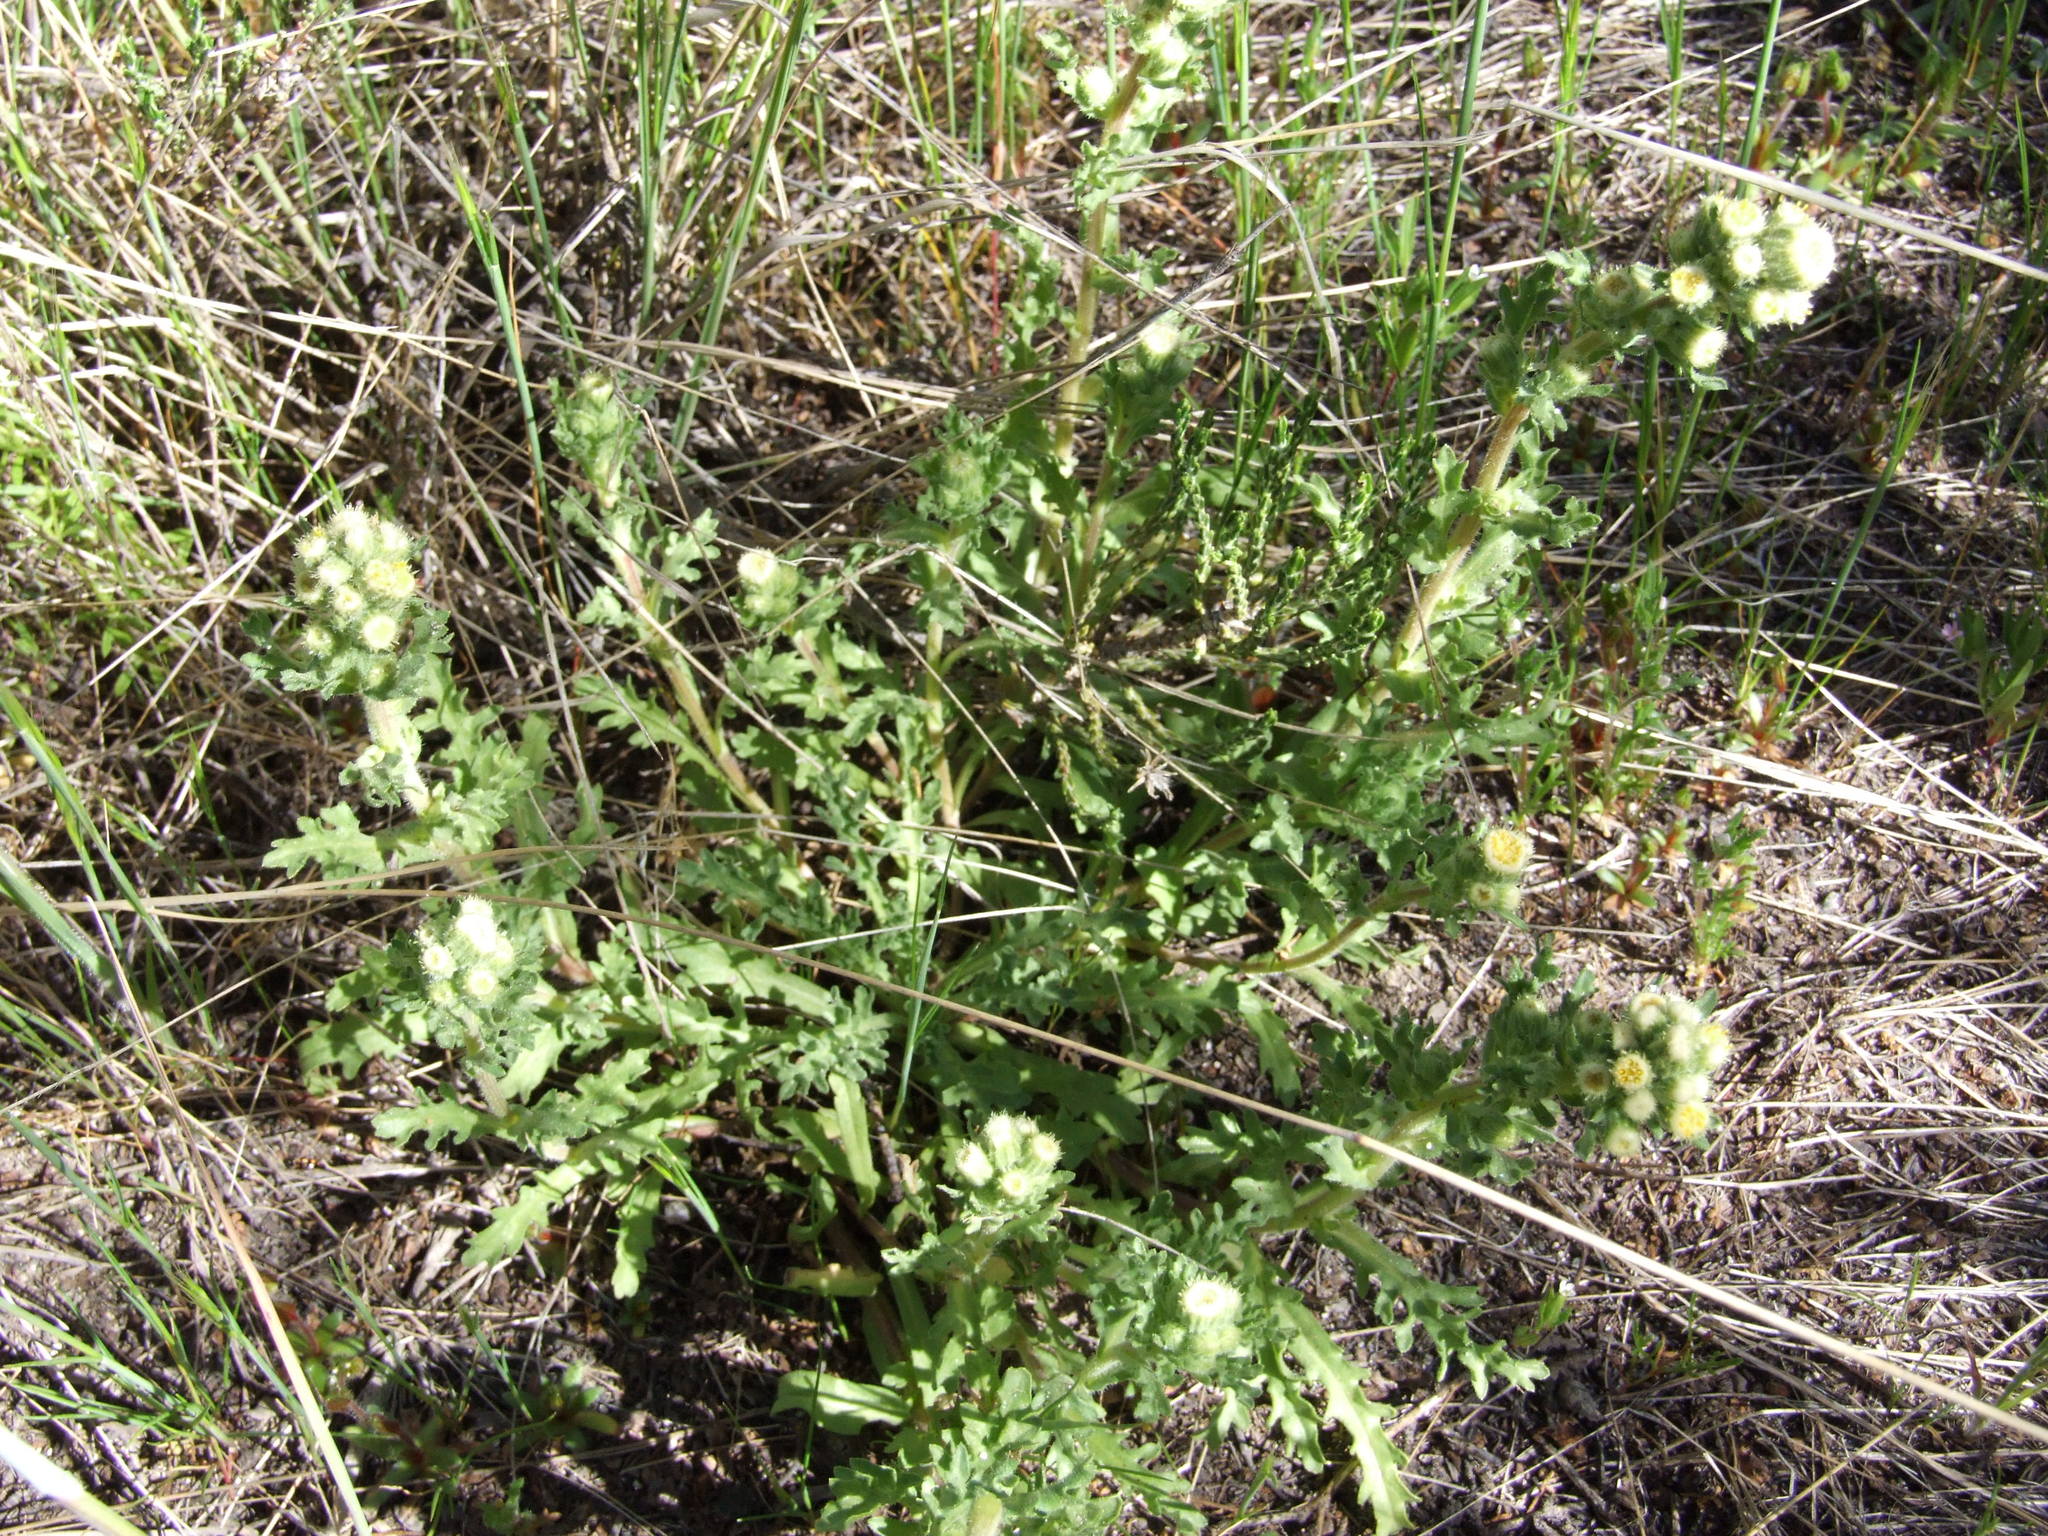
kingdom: Plantae
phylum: Tracheophyta
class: Magnoliopsida
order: Asterales
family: Asteraceae
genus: Laennecia
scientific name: Laennecia artemisiifolia
